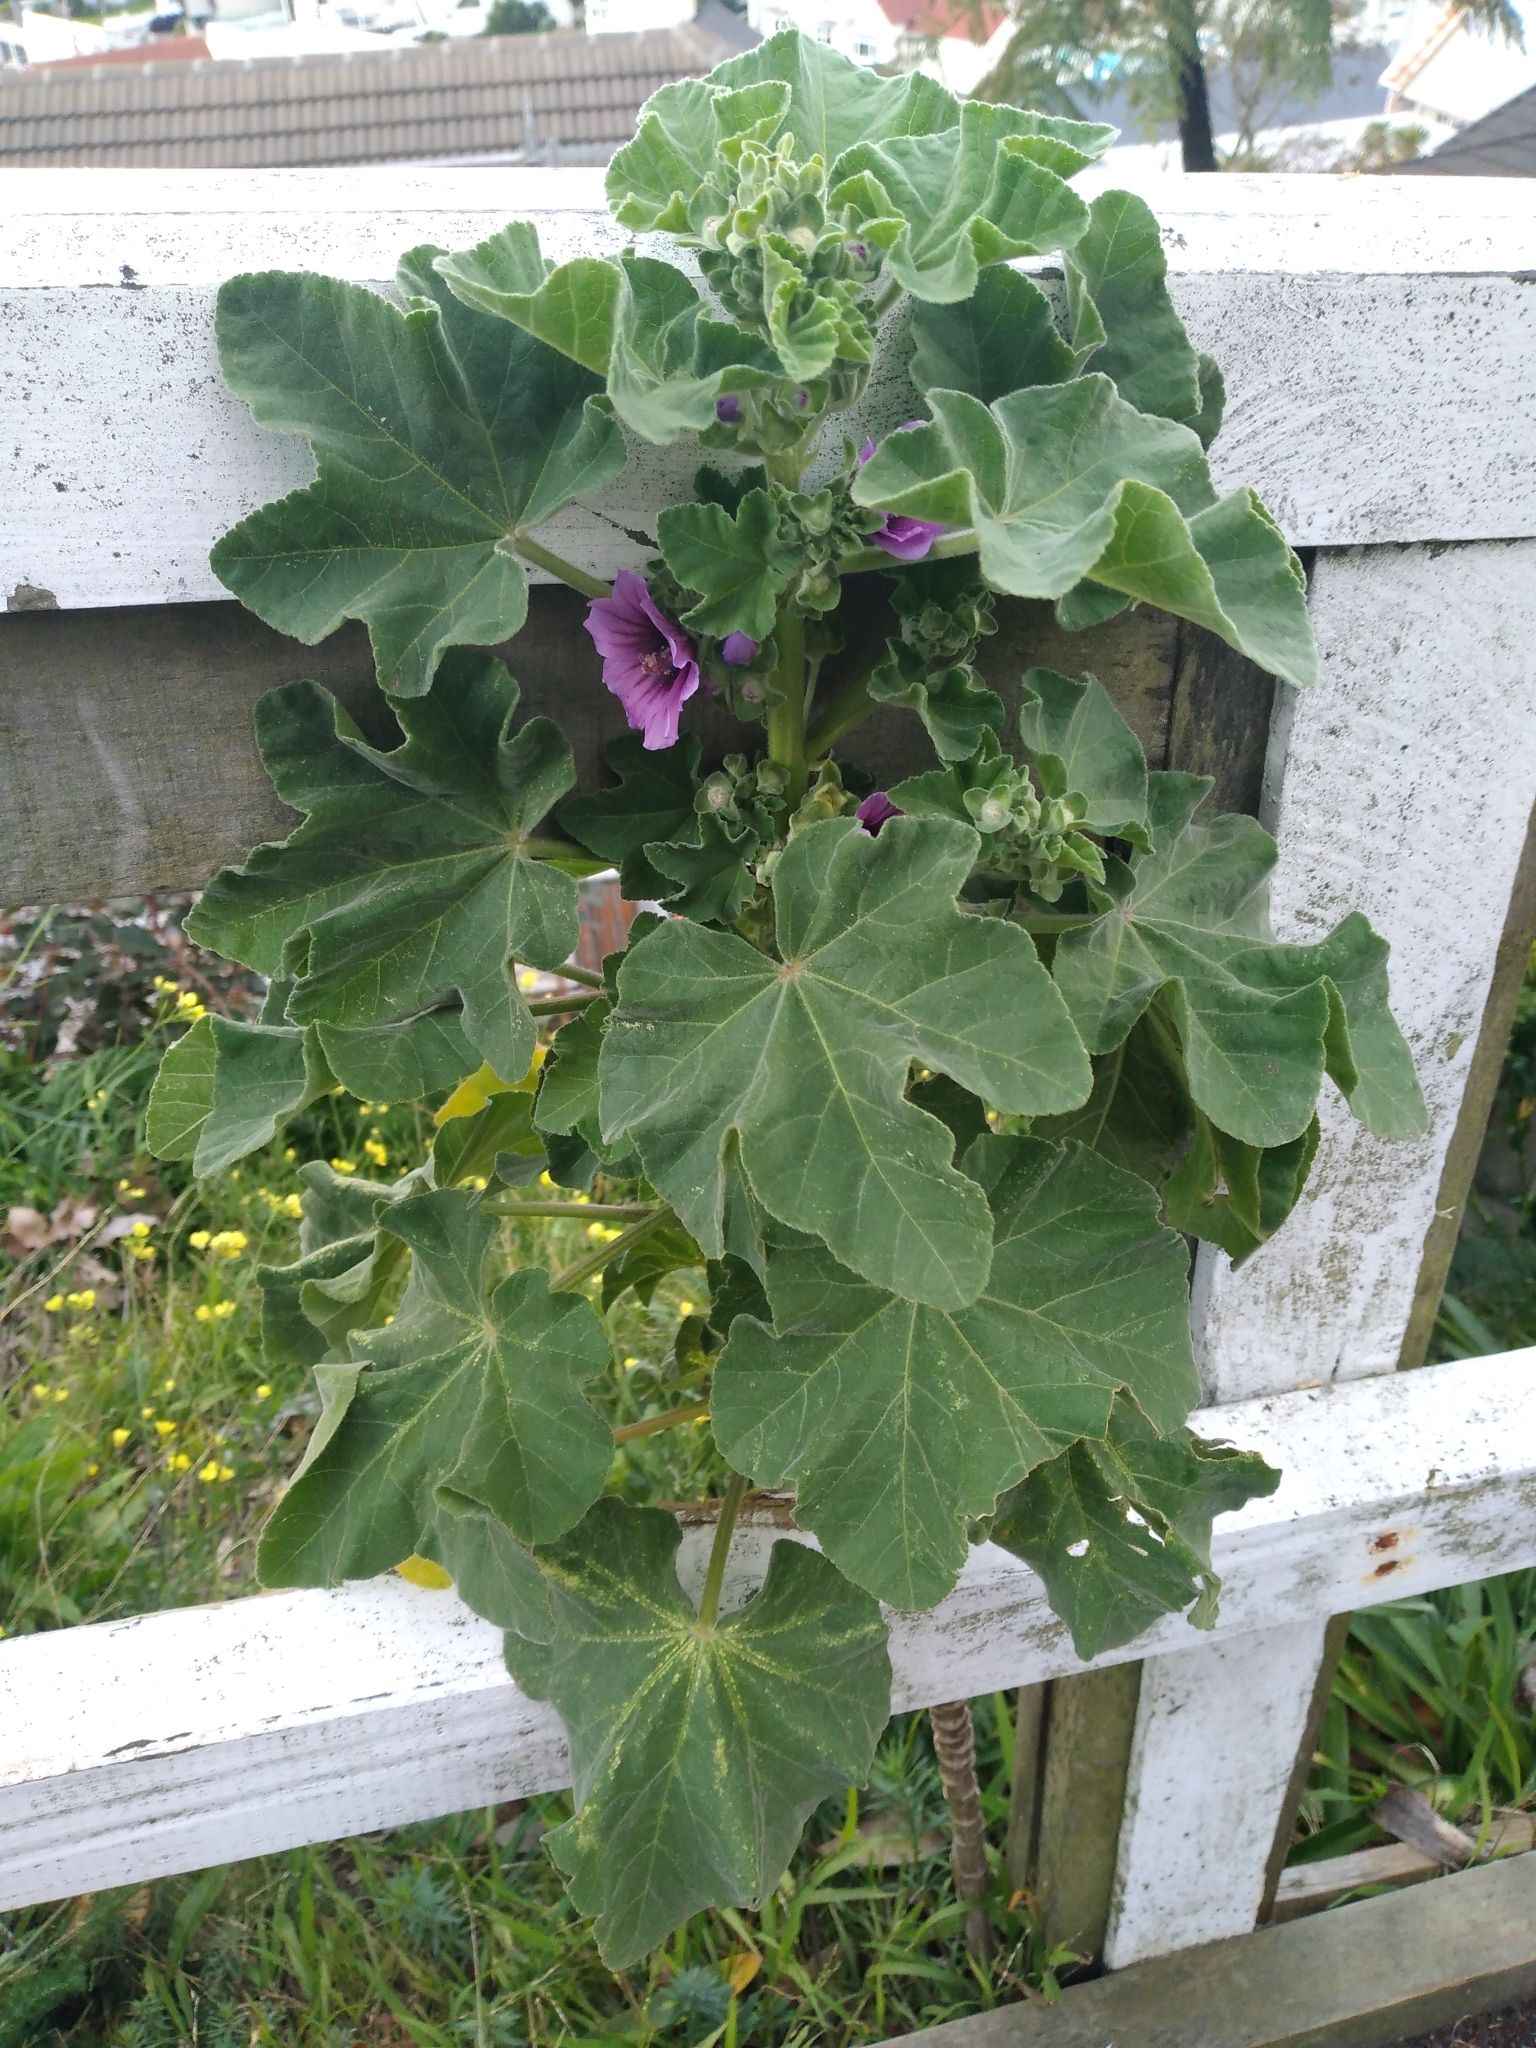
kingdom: Plantae
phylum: Tracheophyta
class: Magnoliopsida
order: Malvales
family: Malvaceae
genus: Malva
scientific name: Malva arborea
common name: Tree mallow
